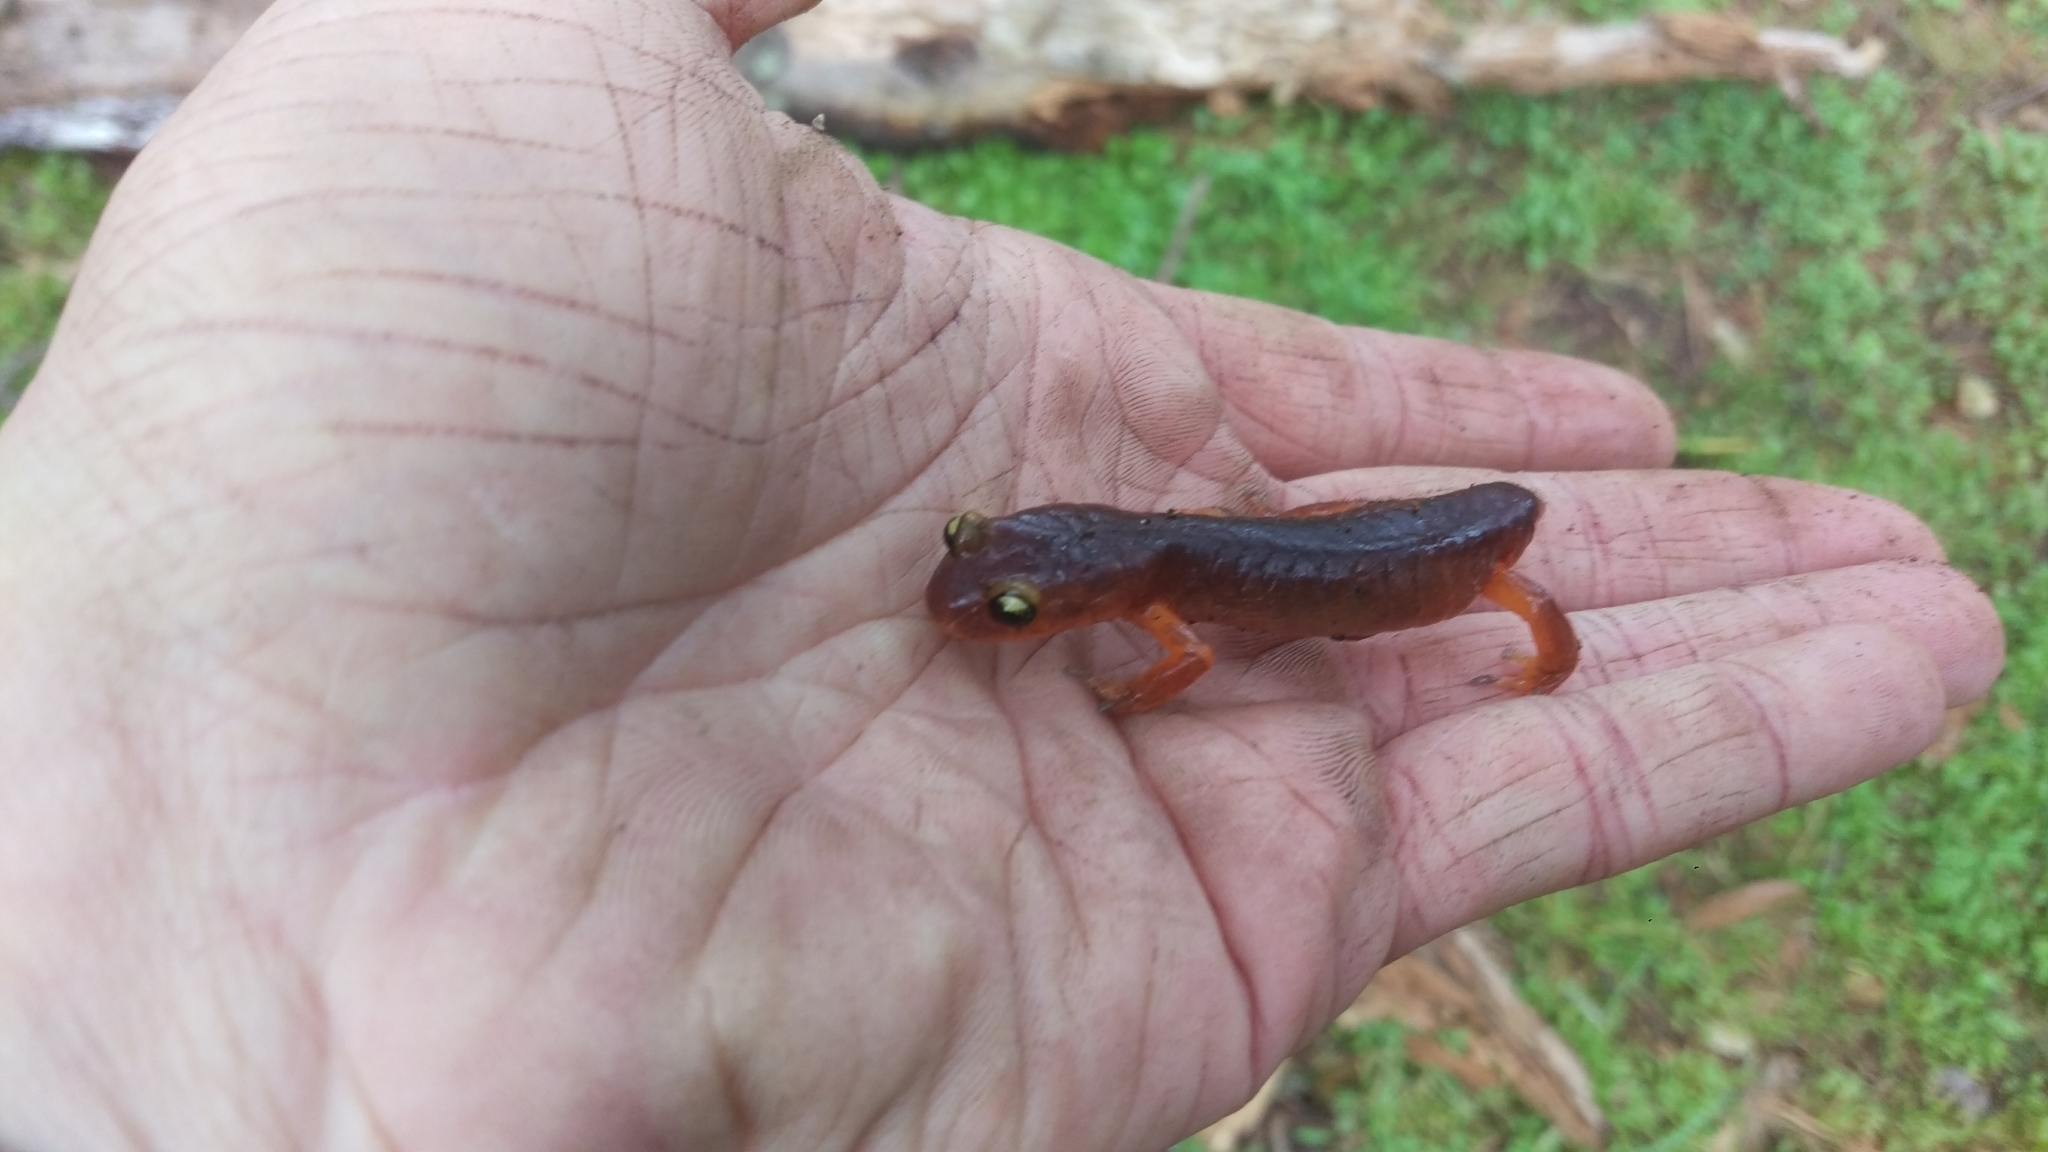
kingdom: Animalia
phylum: Chordata
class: Amphibia
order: Caudata
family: Plethodontidae
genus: Ensatina
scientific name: Ensatina eschscholtzii
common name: Ensatina
